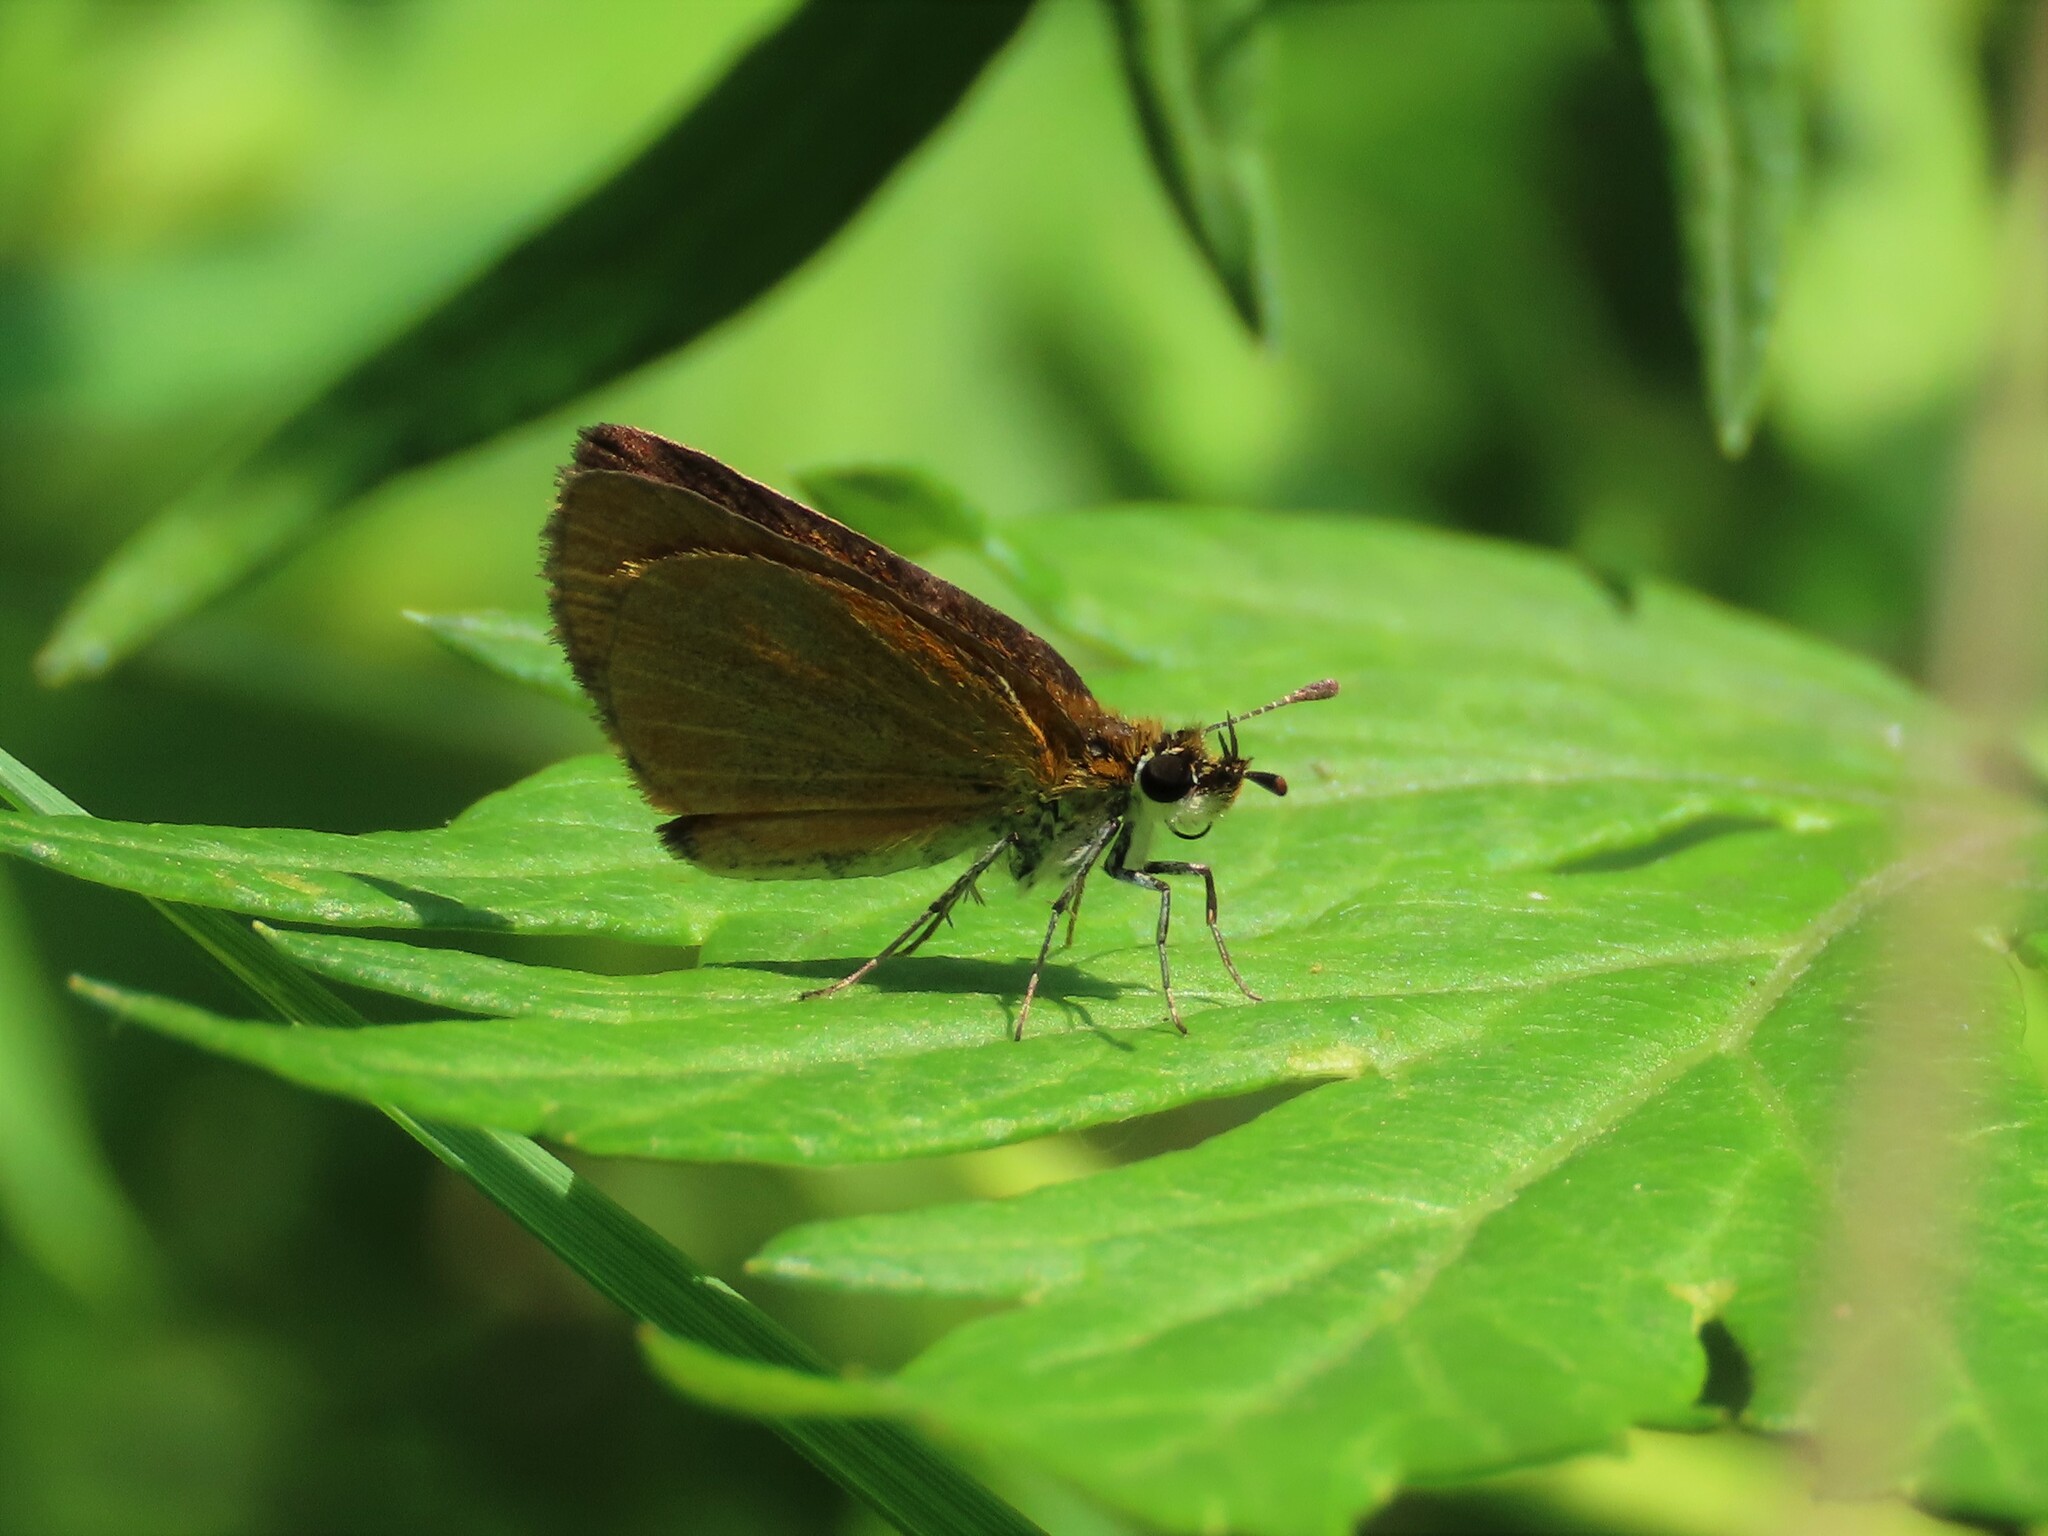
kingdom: Animalia
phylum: Arthropoda
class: Insecta
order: Lepidoptera
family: Hesperiidae
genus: Ancyloxypha
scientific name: Ancyloxypha numitor
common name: Least skipper
